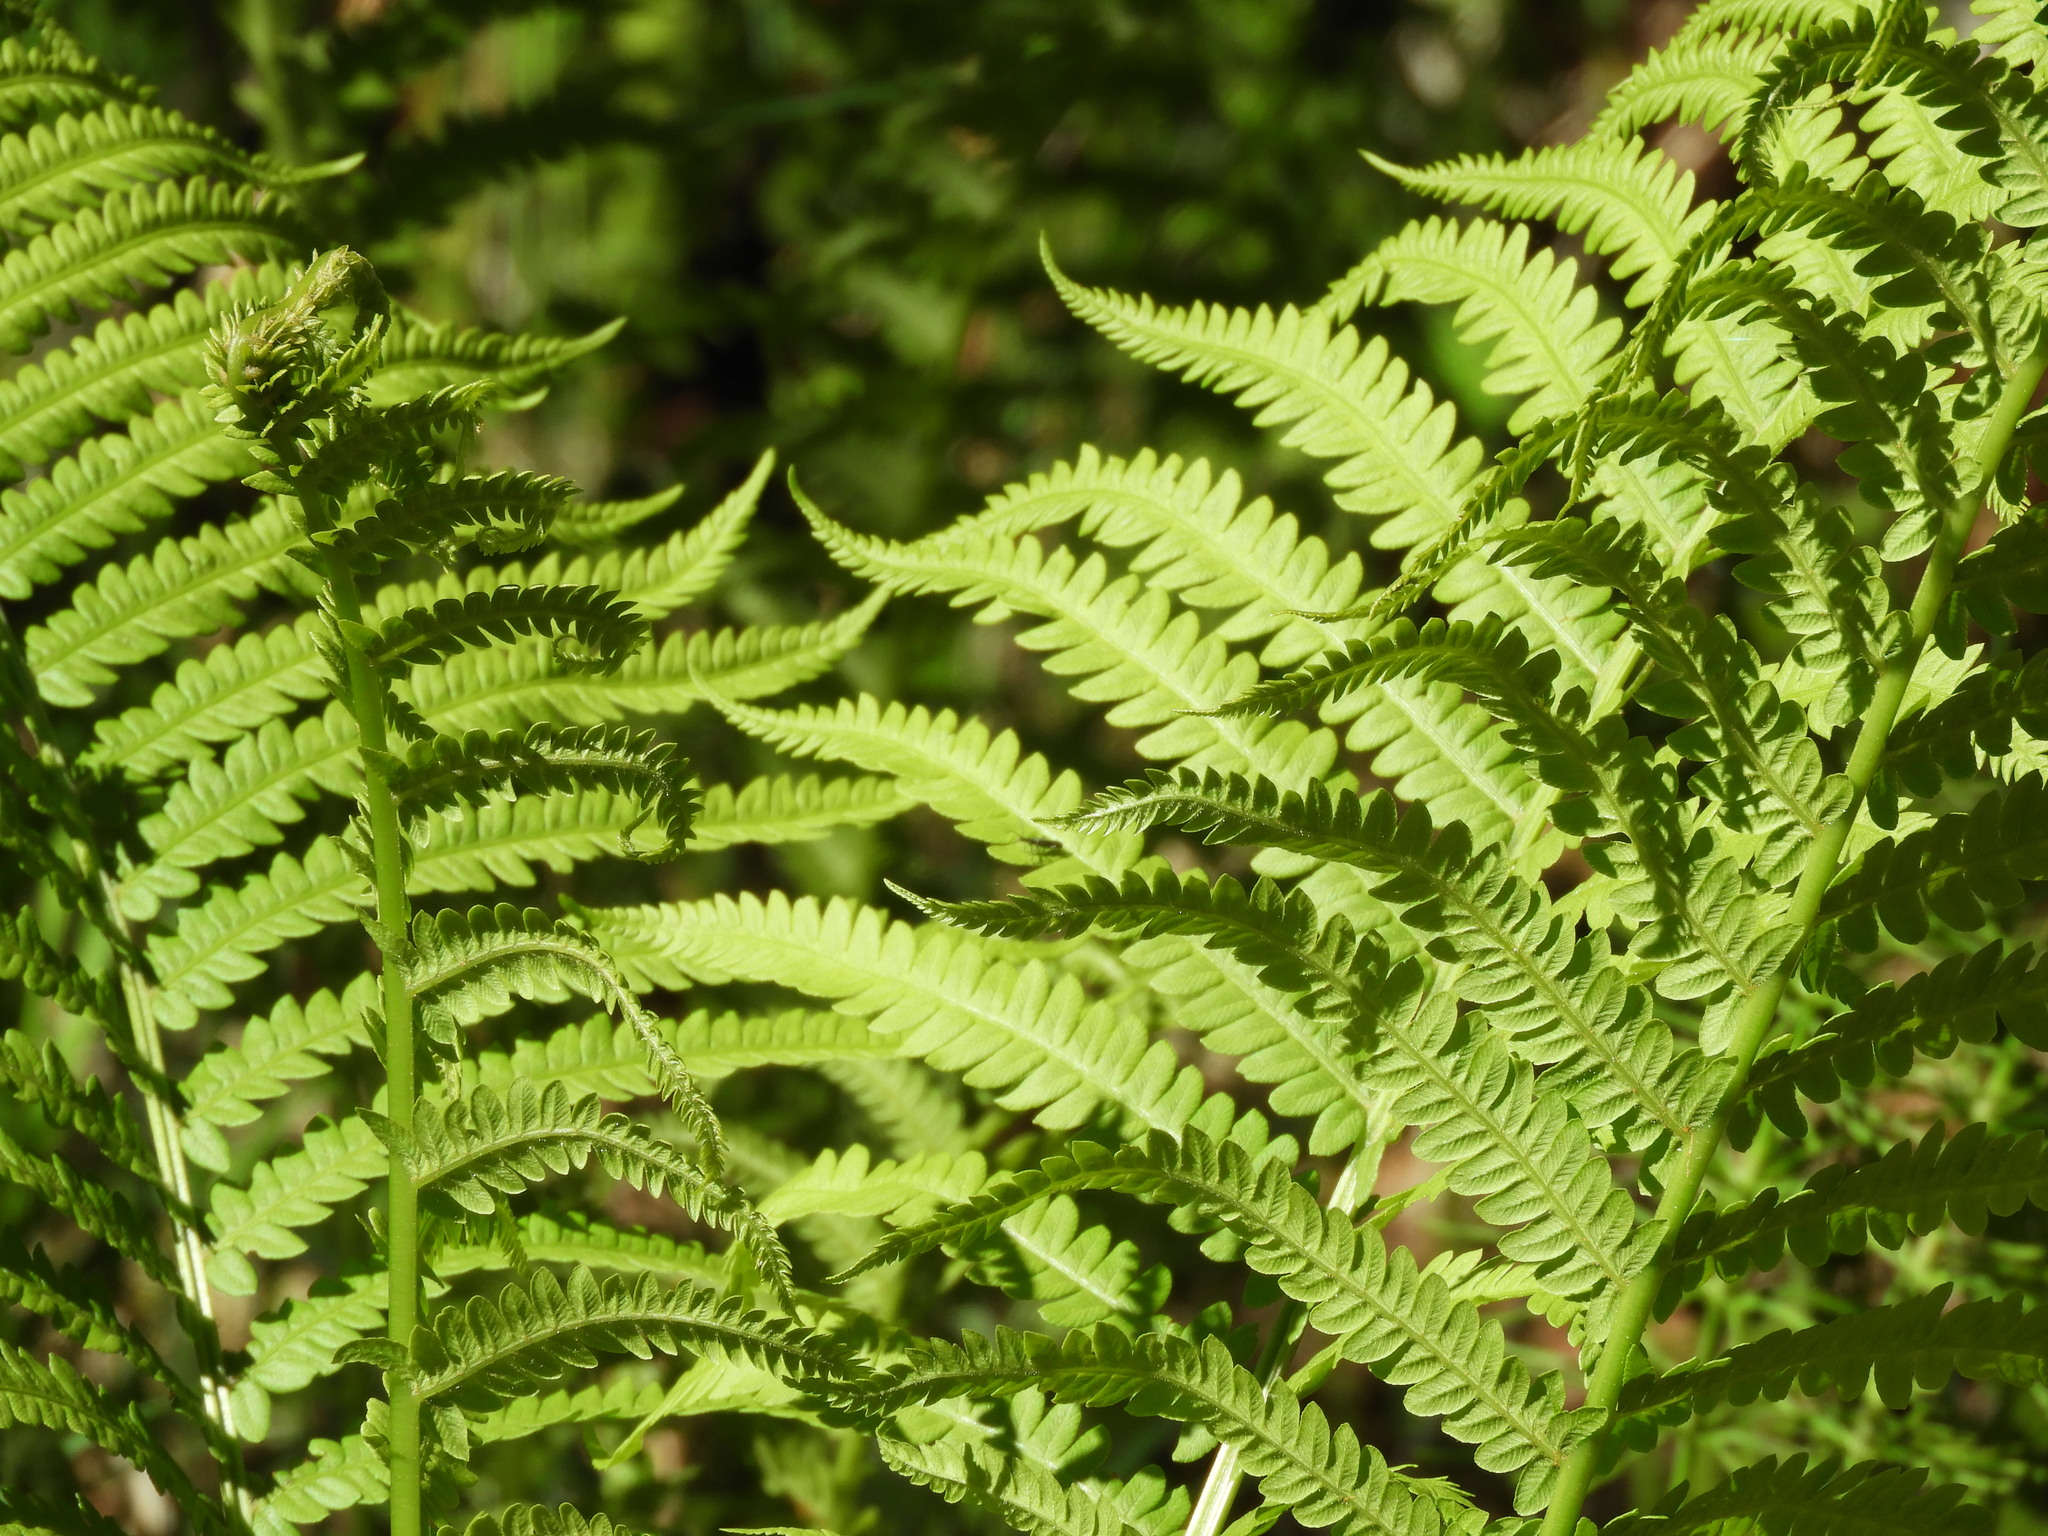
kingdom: Plantae
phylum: Tracheophyta
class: Polypodiopsida
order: Polypodiales
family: Onocleaceae
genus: Matteuccia
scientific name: Matteuccia struthiopteris
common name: Ostrich fern
